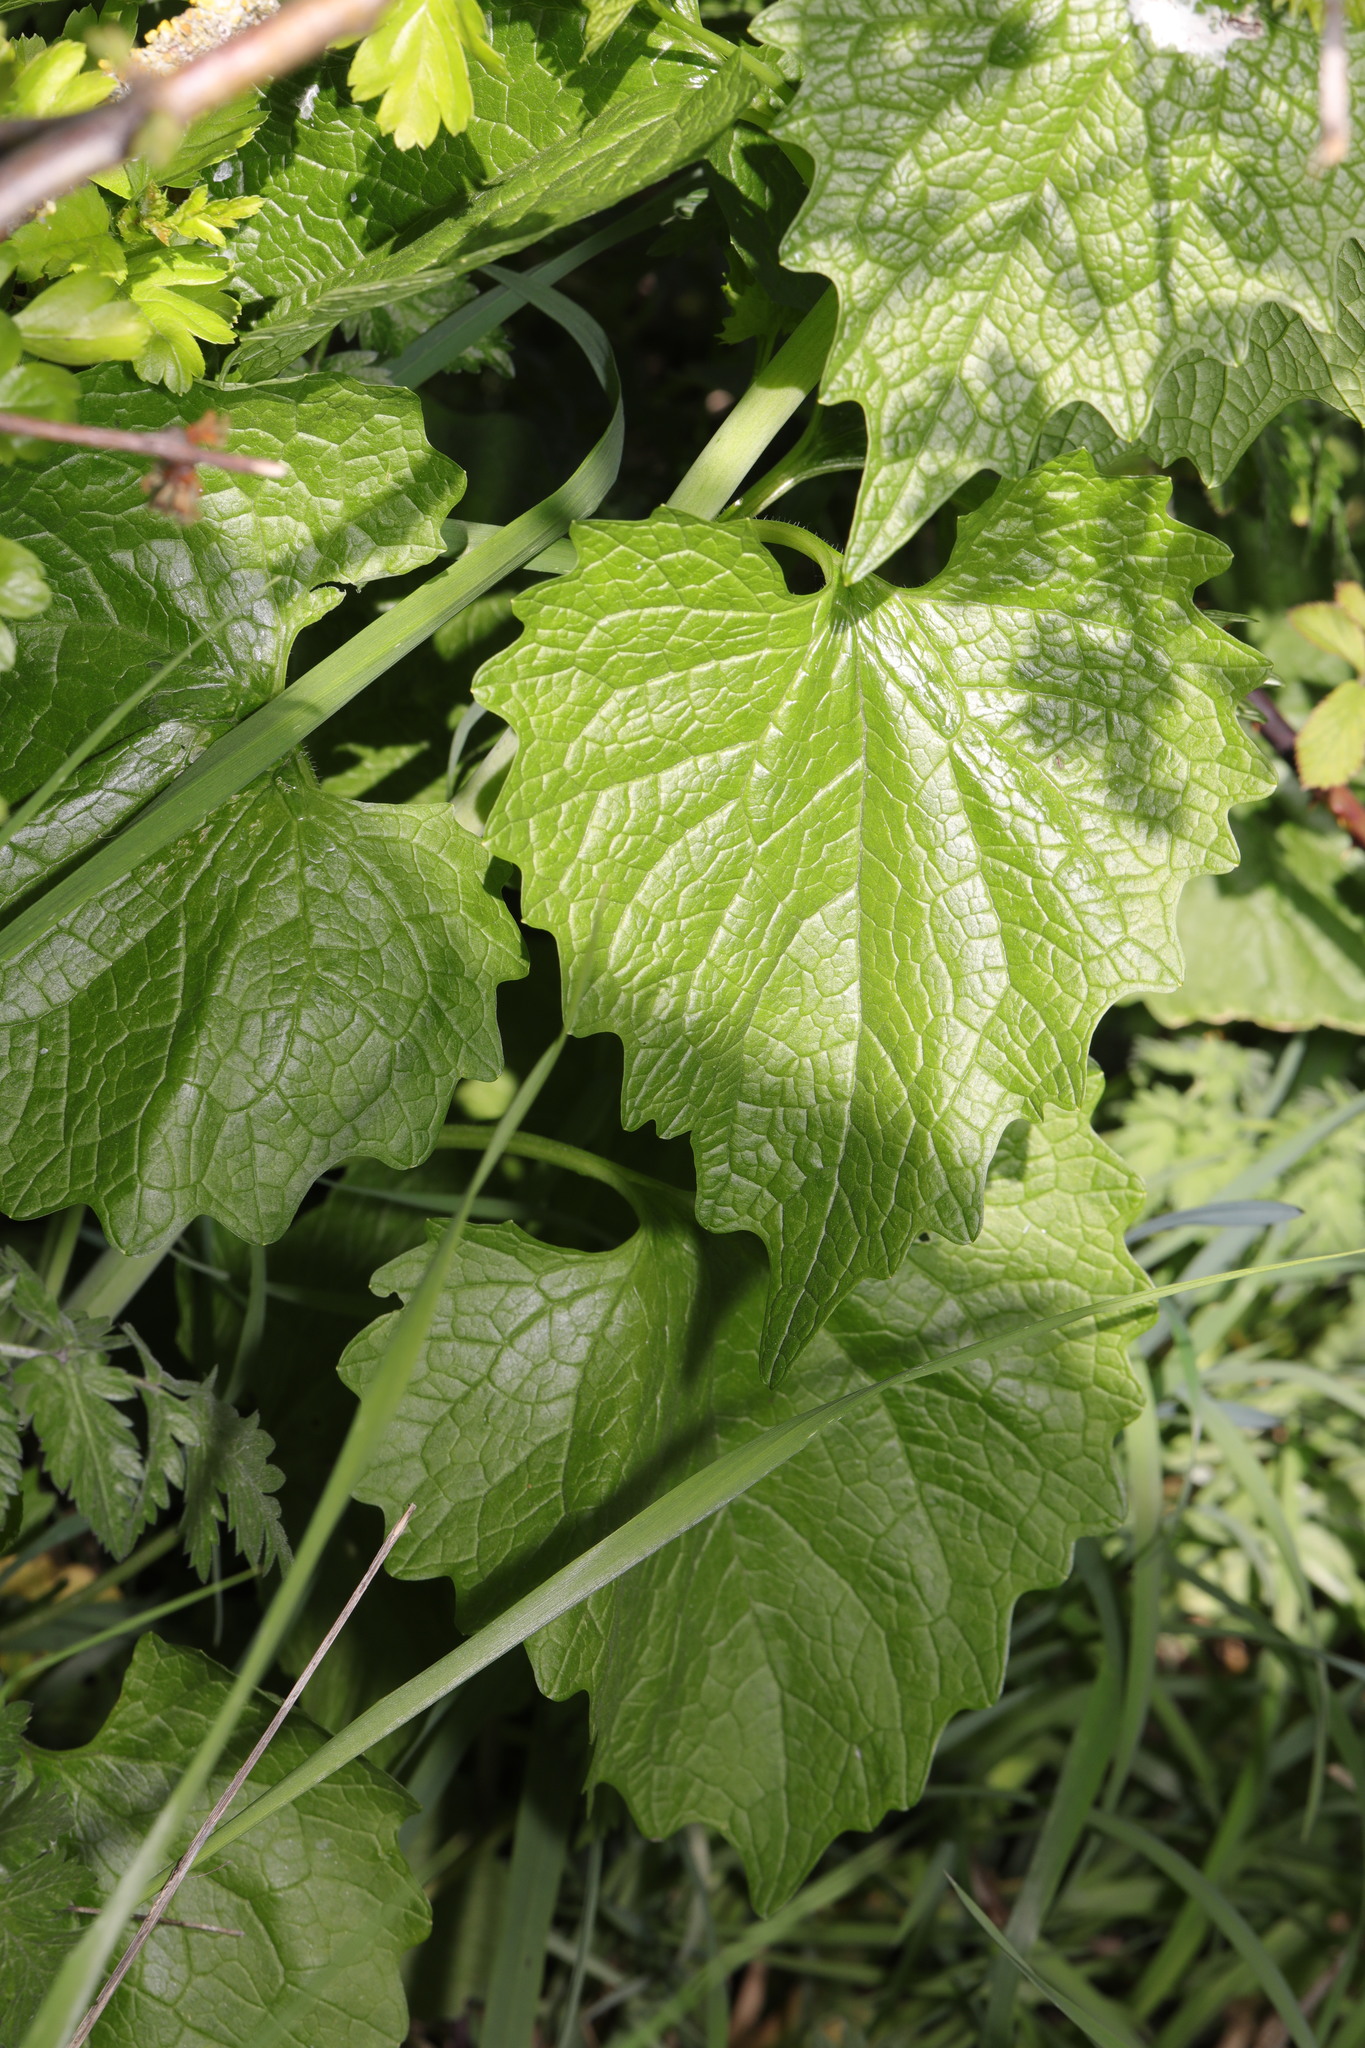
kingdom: Plantae
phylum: Tracheophyta
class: Magnoliopsida
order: Brassicales
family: Brassicaceae
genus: Alliaria
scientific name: Alliaria petiolata
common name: Garlic mustard
